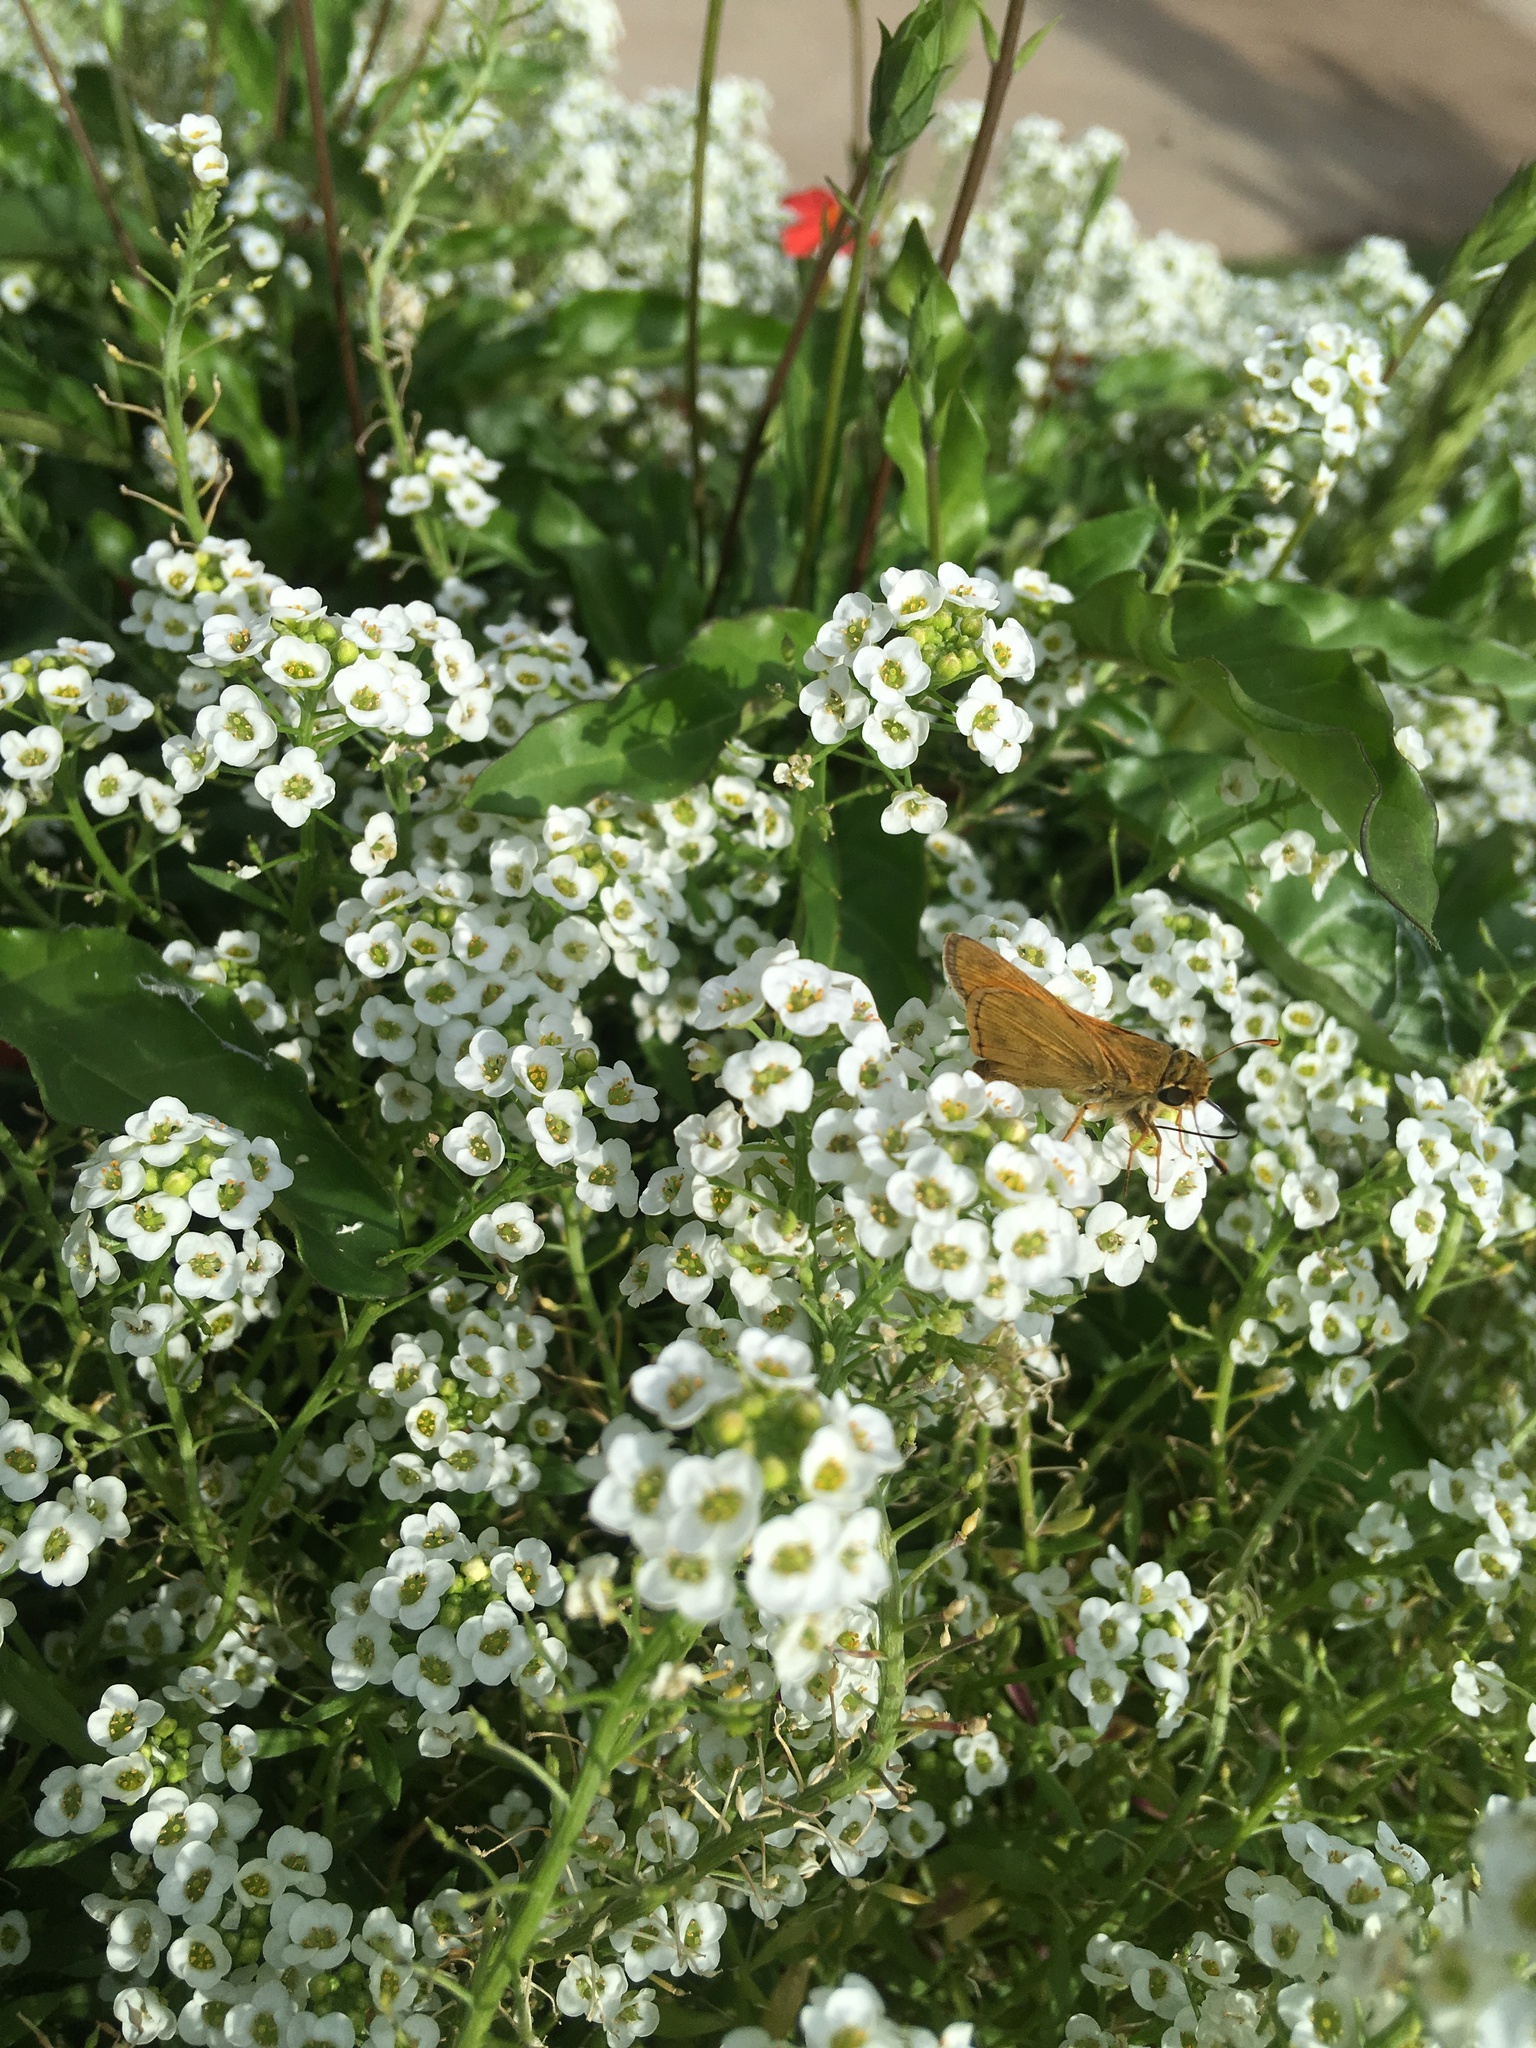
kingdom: Animalia
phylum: Arthropoda
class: Insecta
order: Lepidoptera
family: Hesperiidae
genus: Atalopedes
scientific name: Atalopedes
